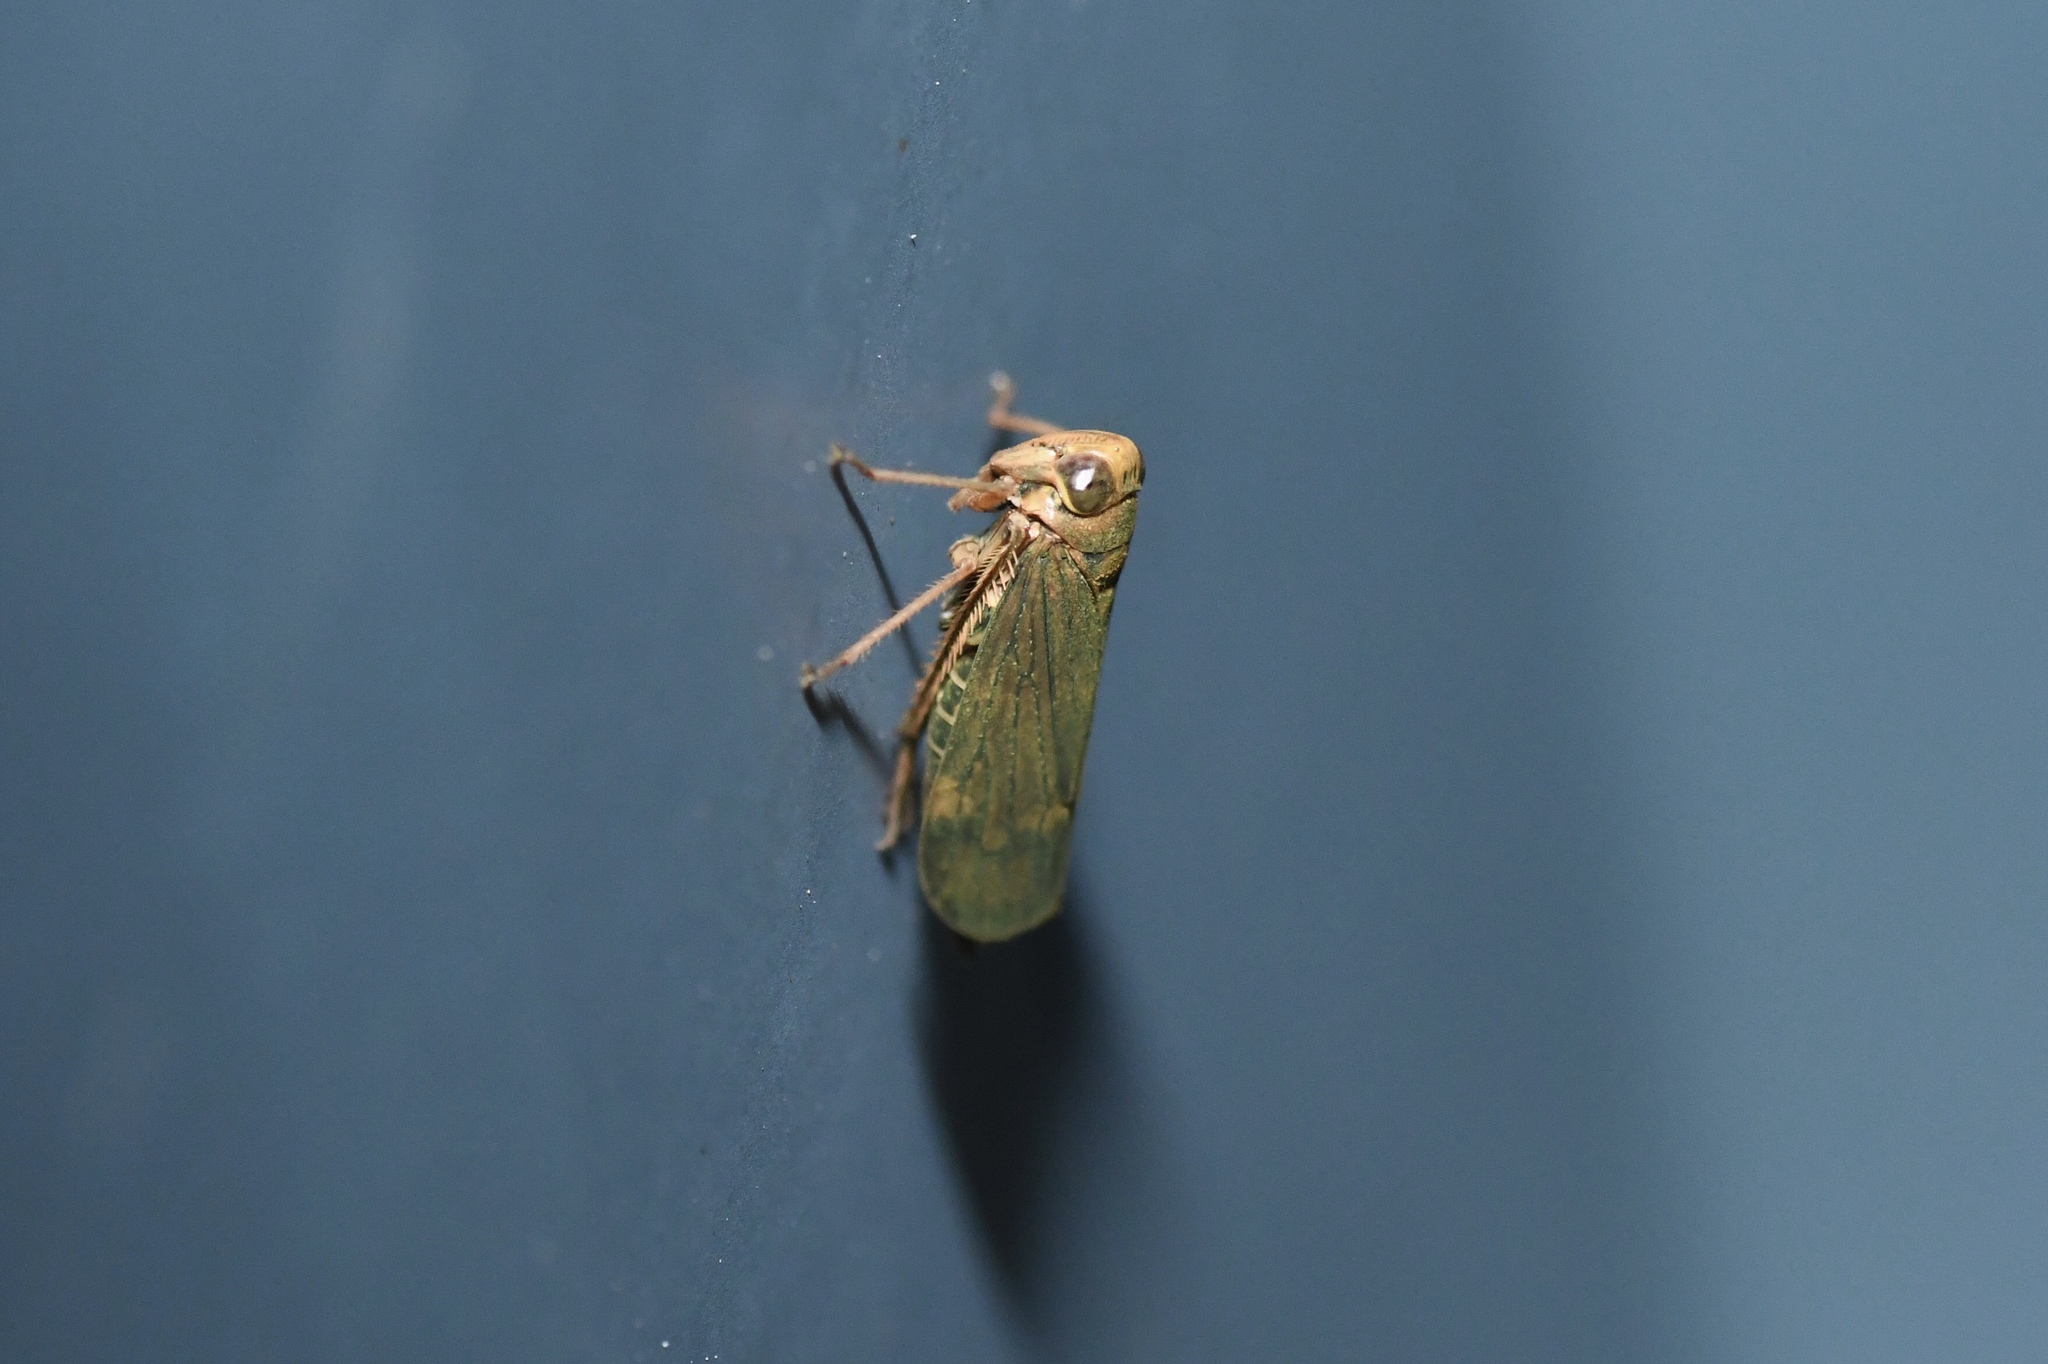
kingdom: Animalia
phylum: Arthropoda
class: Insecta
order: Hemiptera
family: Cicadellidae
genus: Jikradia
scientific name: Jikradia olitoria
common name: Coppery leafhopper
